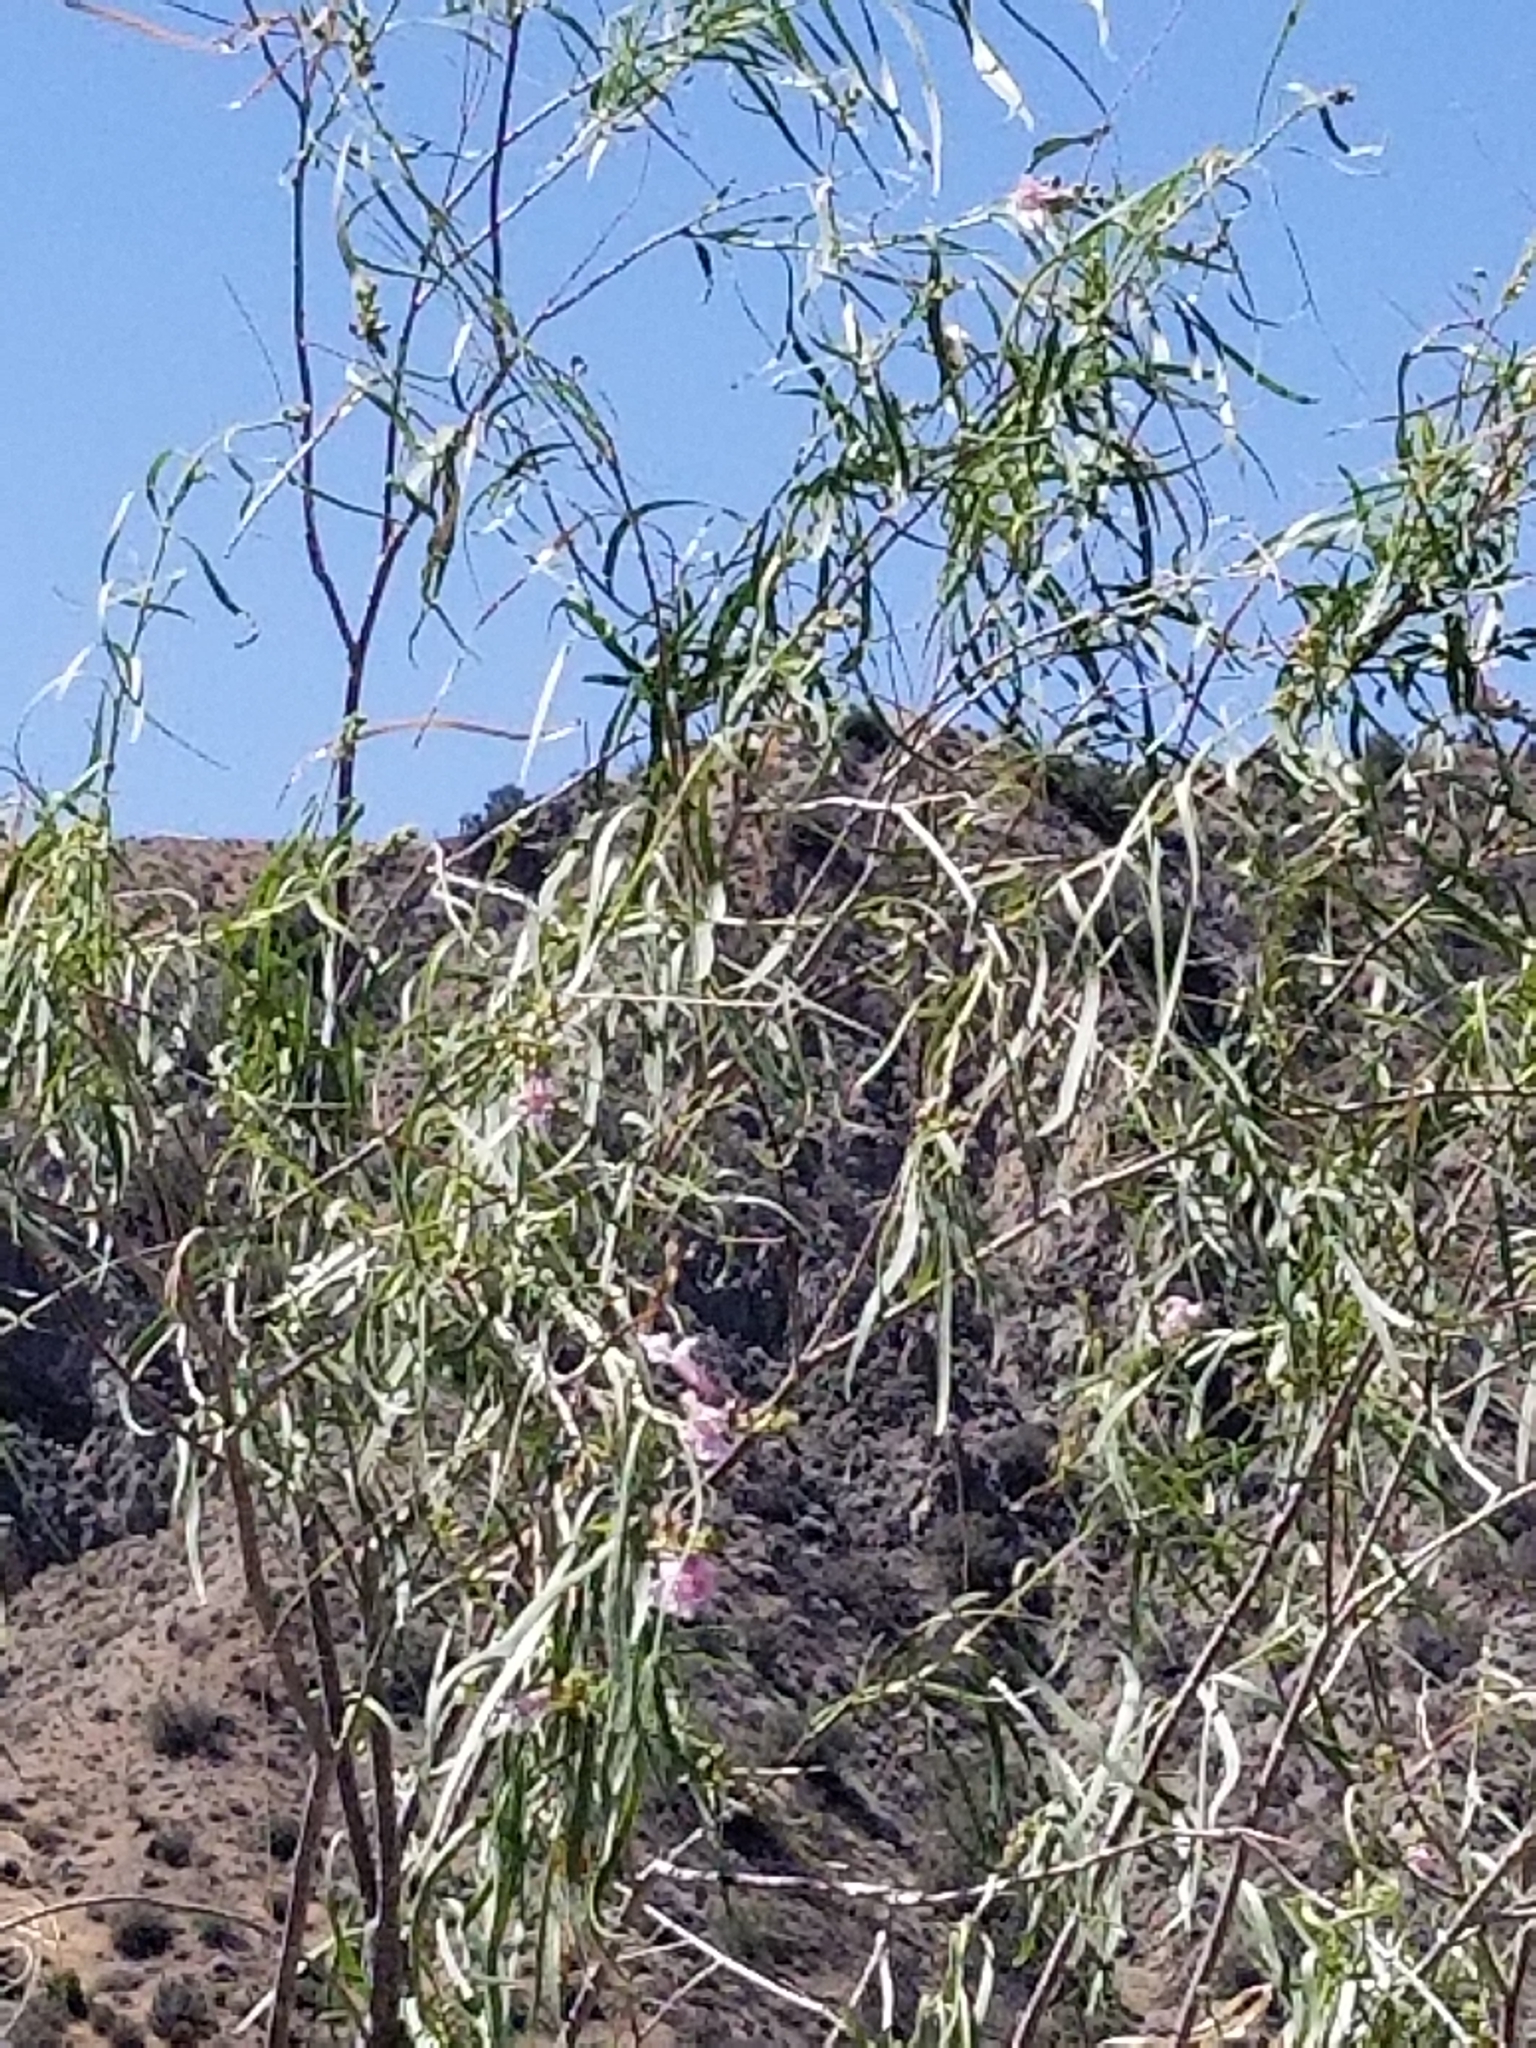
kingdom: Plantae
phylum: Tracheophyta
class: Magnoliopsida
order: Lamiales
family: Bignoniaceae
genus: Chilopsis
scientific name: Chilopsis linearis
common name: Desert-willow
